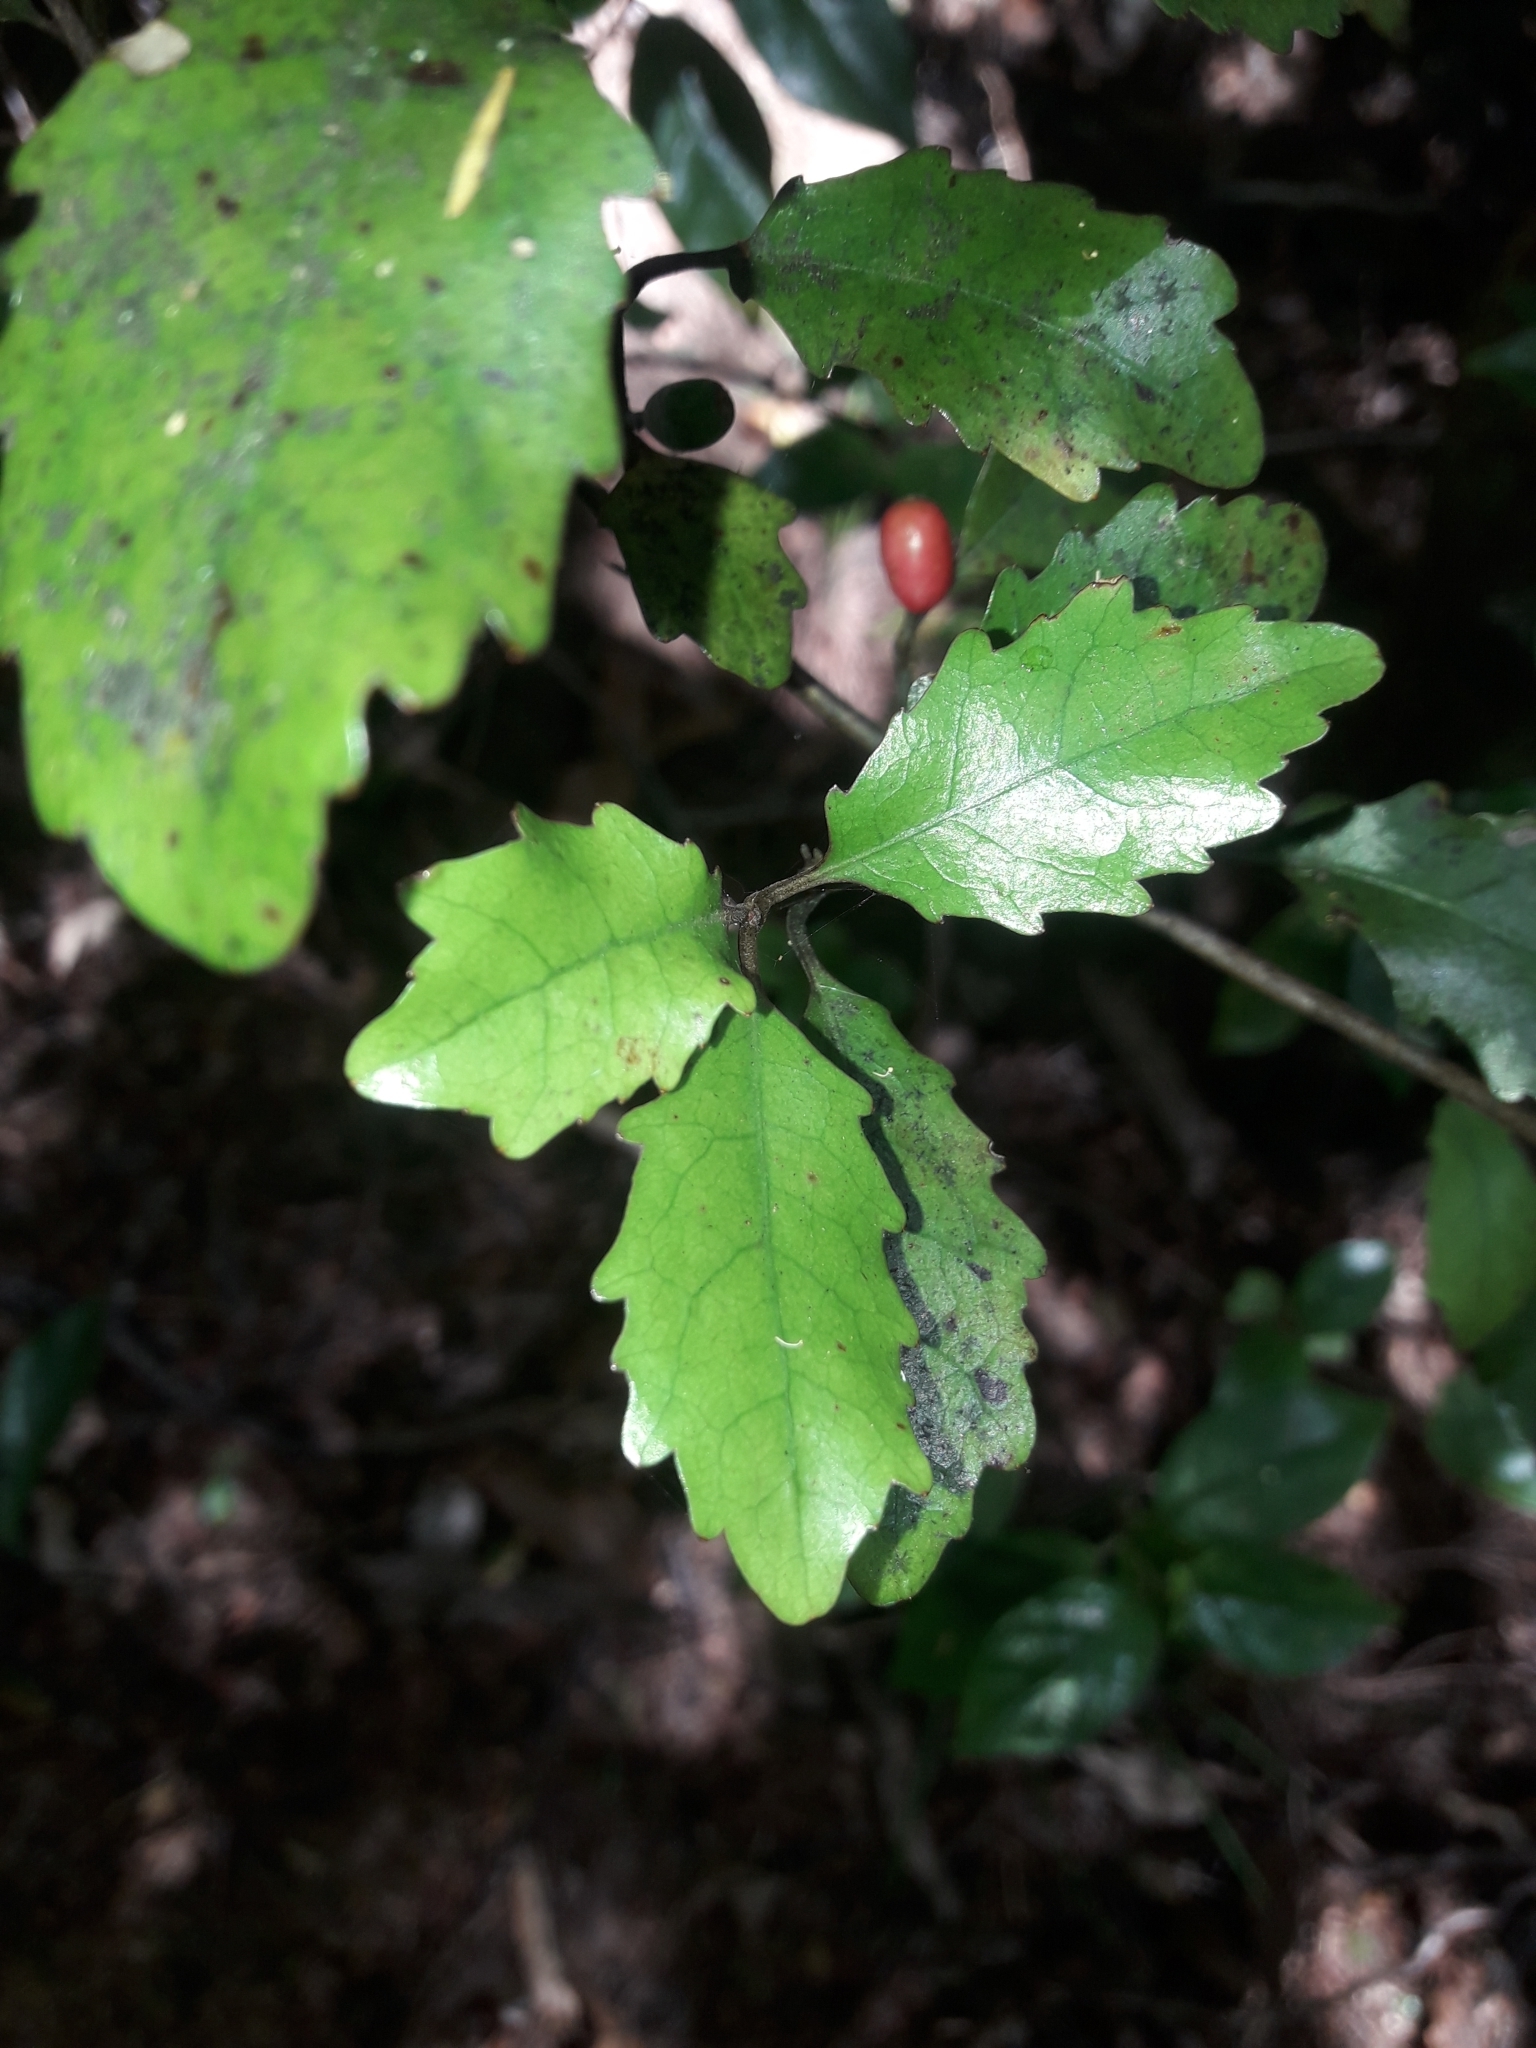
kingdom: Plantae
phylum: Tracheophyta
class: Magnoliopsida
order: Asterales
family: Alseuosmiaceae
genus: Alseuosmia
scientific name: Alseuosmia banksii
